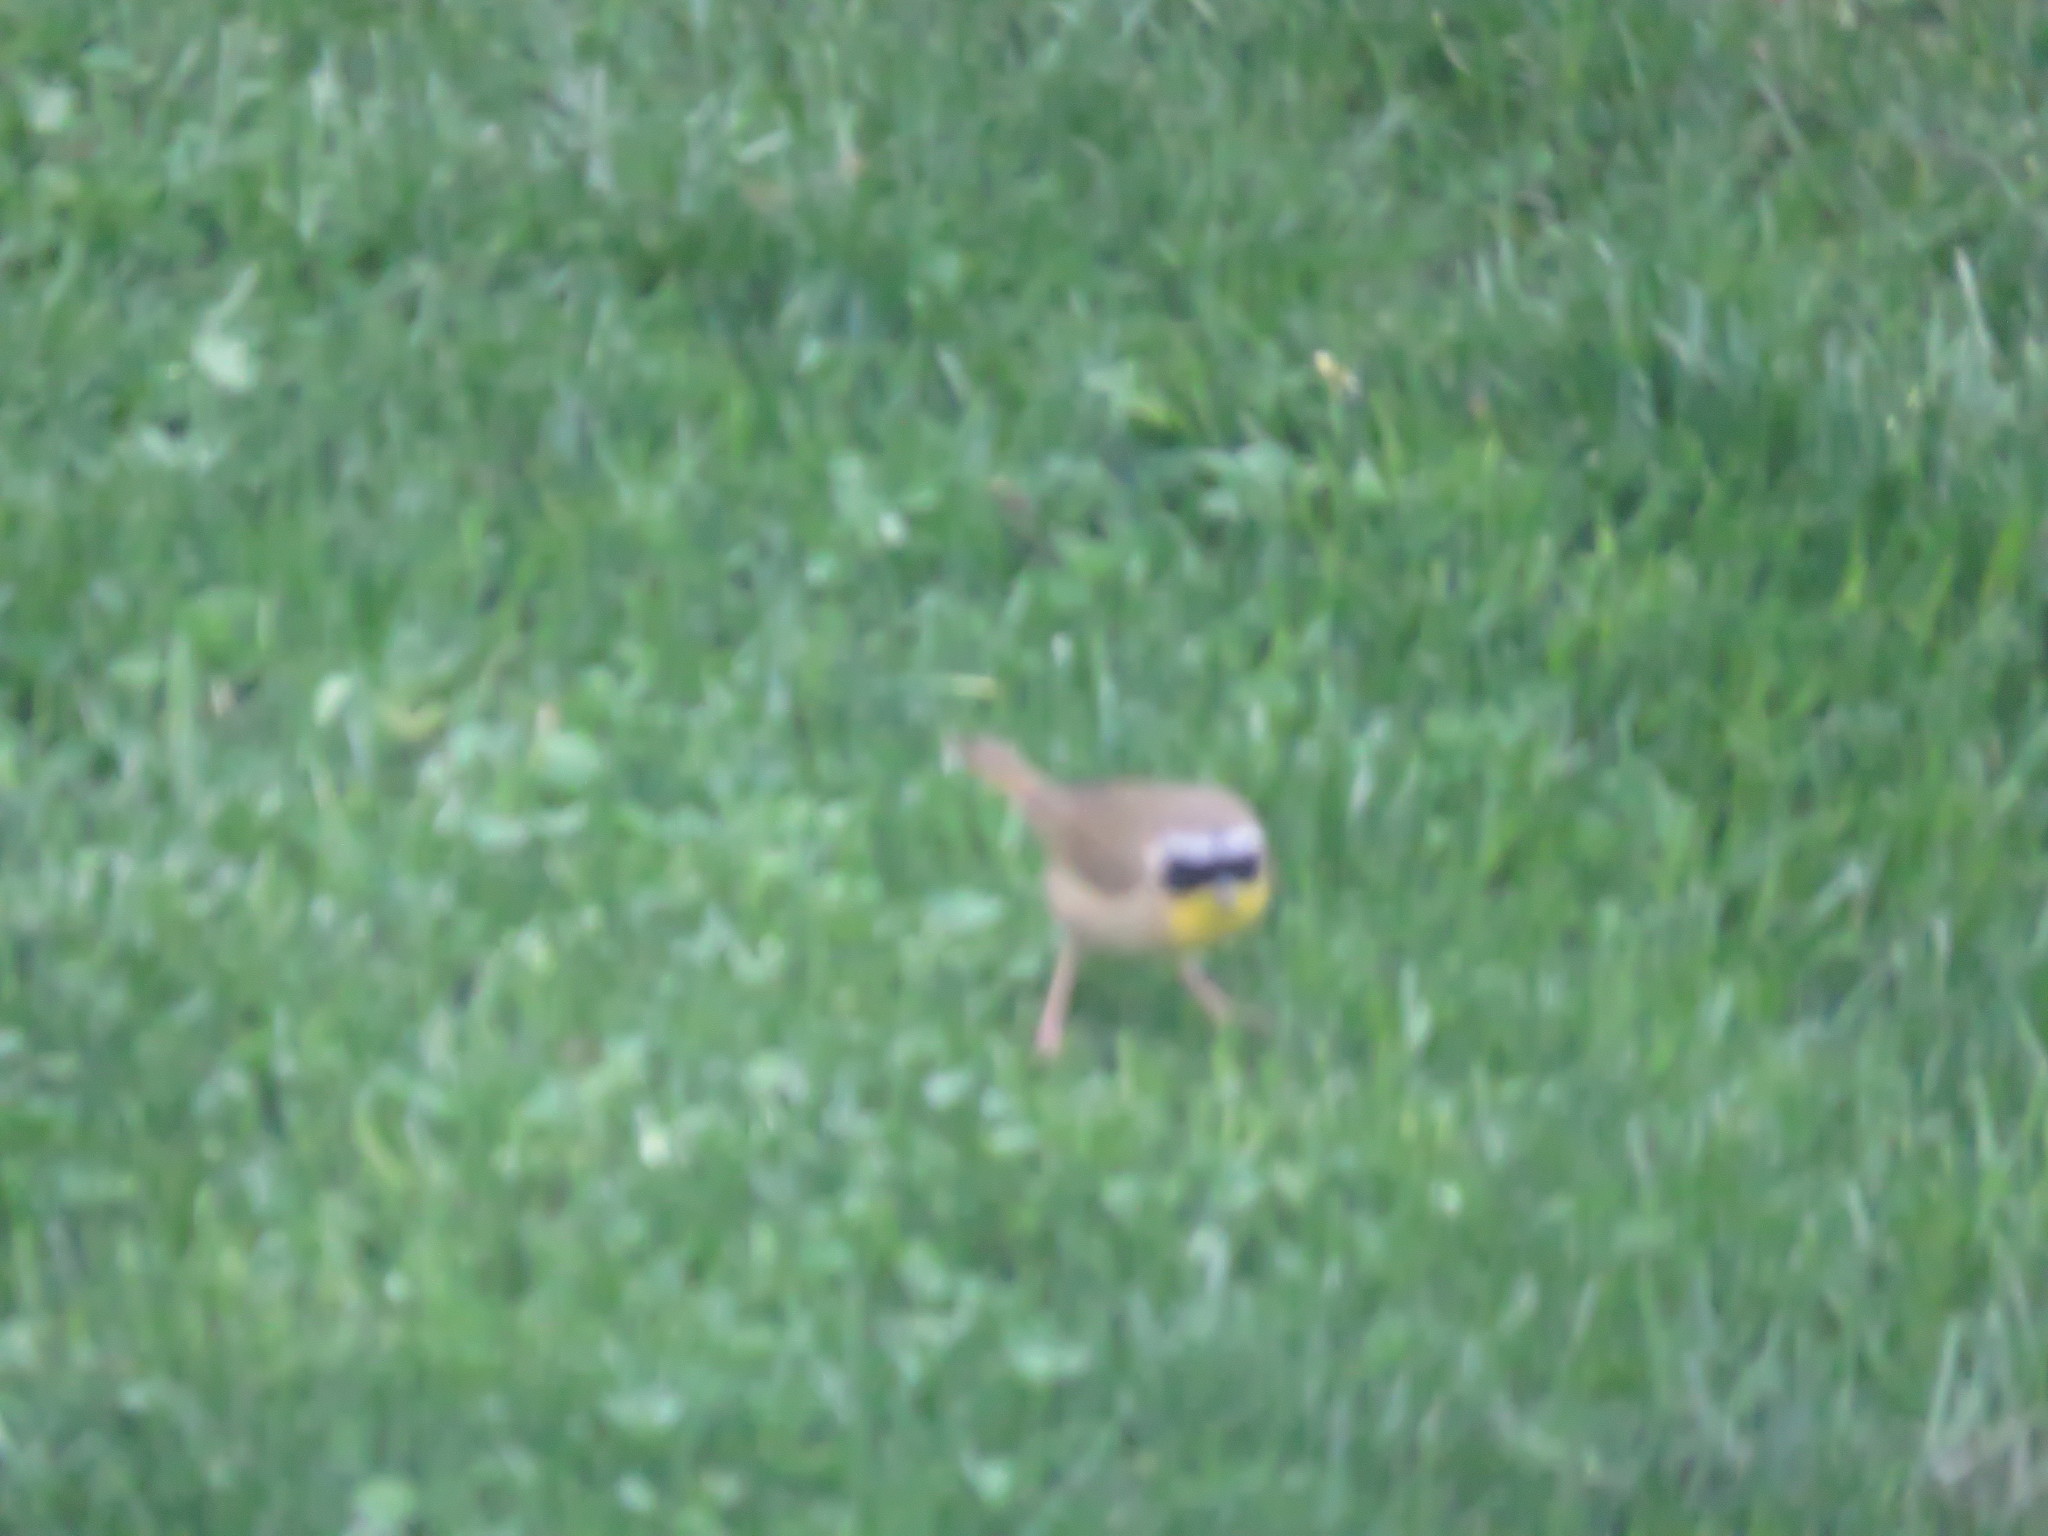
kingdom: Animalia
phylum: Chordata
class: Aves
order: Passeriformes
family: Parulidae
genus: Geothlypis
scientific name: Geothlypis trichas
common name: Common yellowthroat
